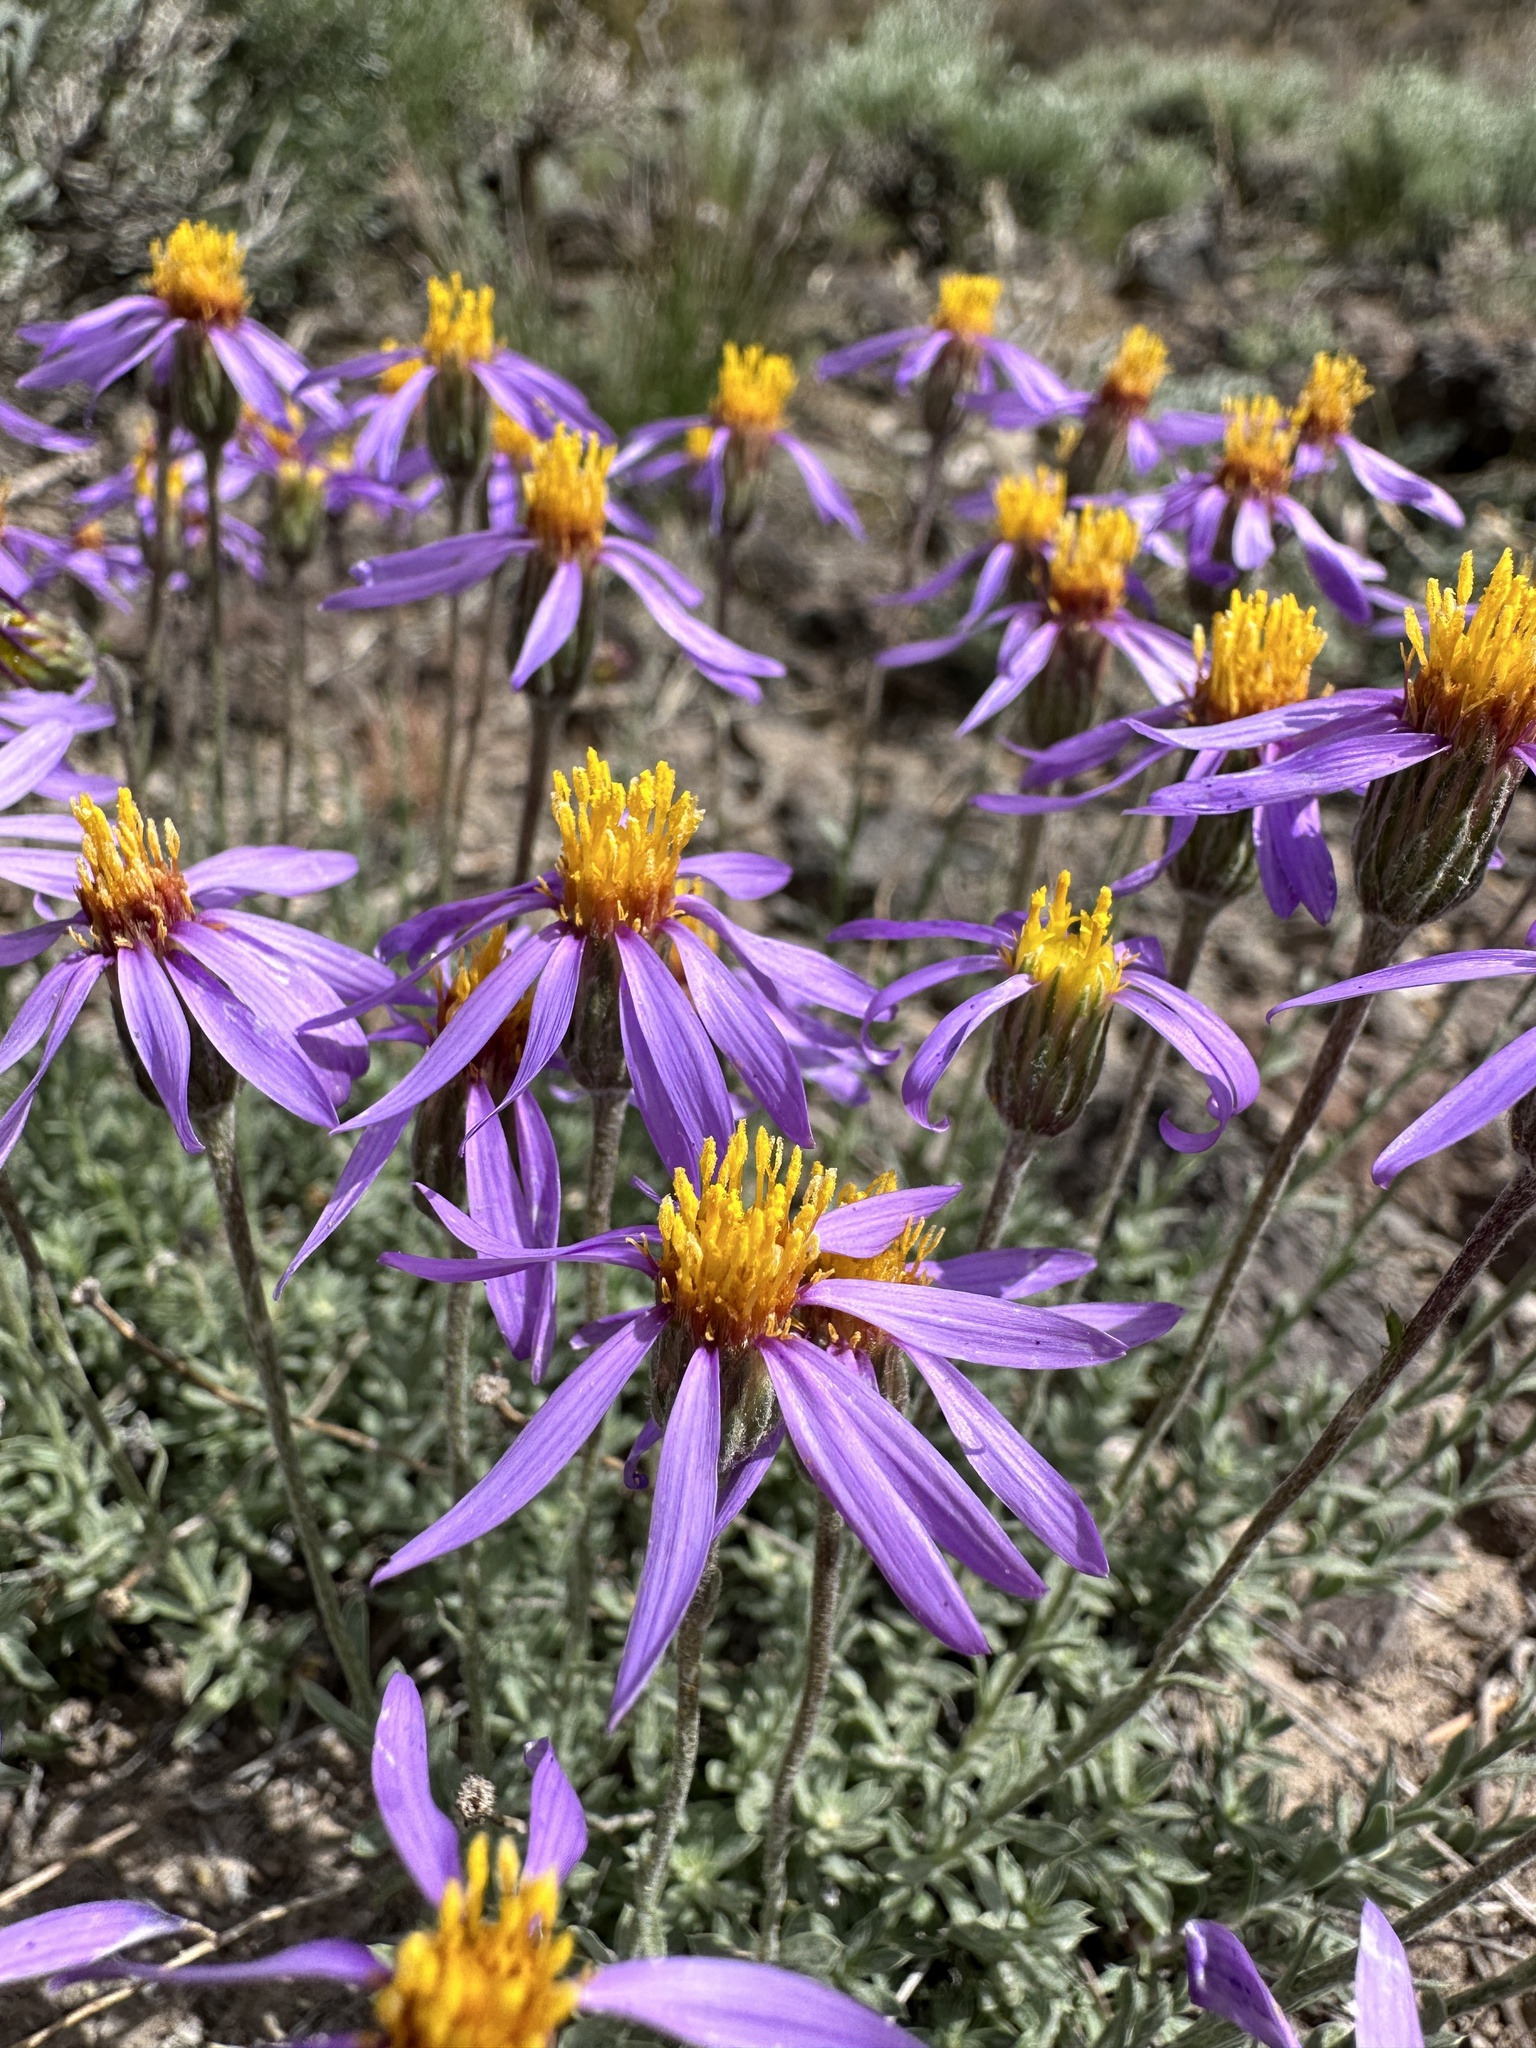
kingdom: Plantae
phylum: Tracheophyta
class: Magnoliopsida
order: Asterales
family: Asteraceae
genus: Ionactis
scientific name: Ionactis alpina
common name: Crag aster
